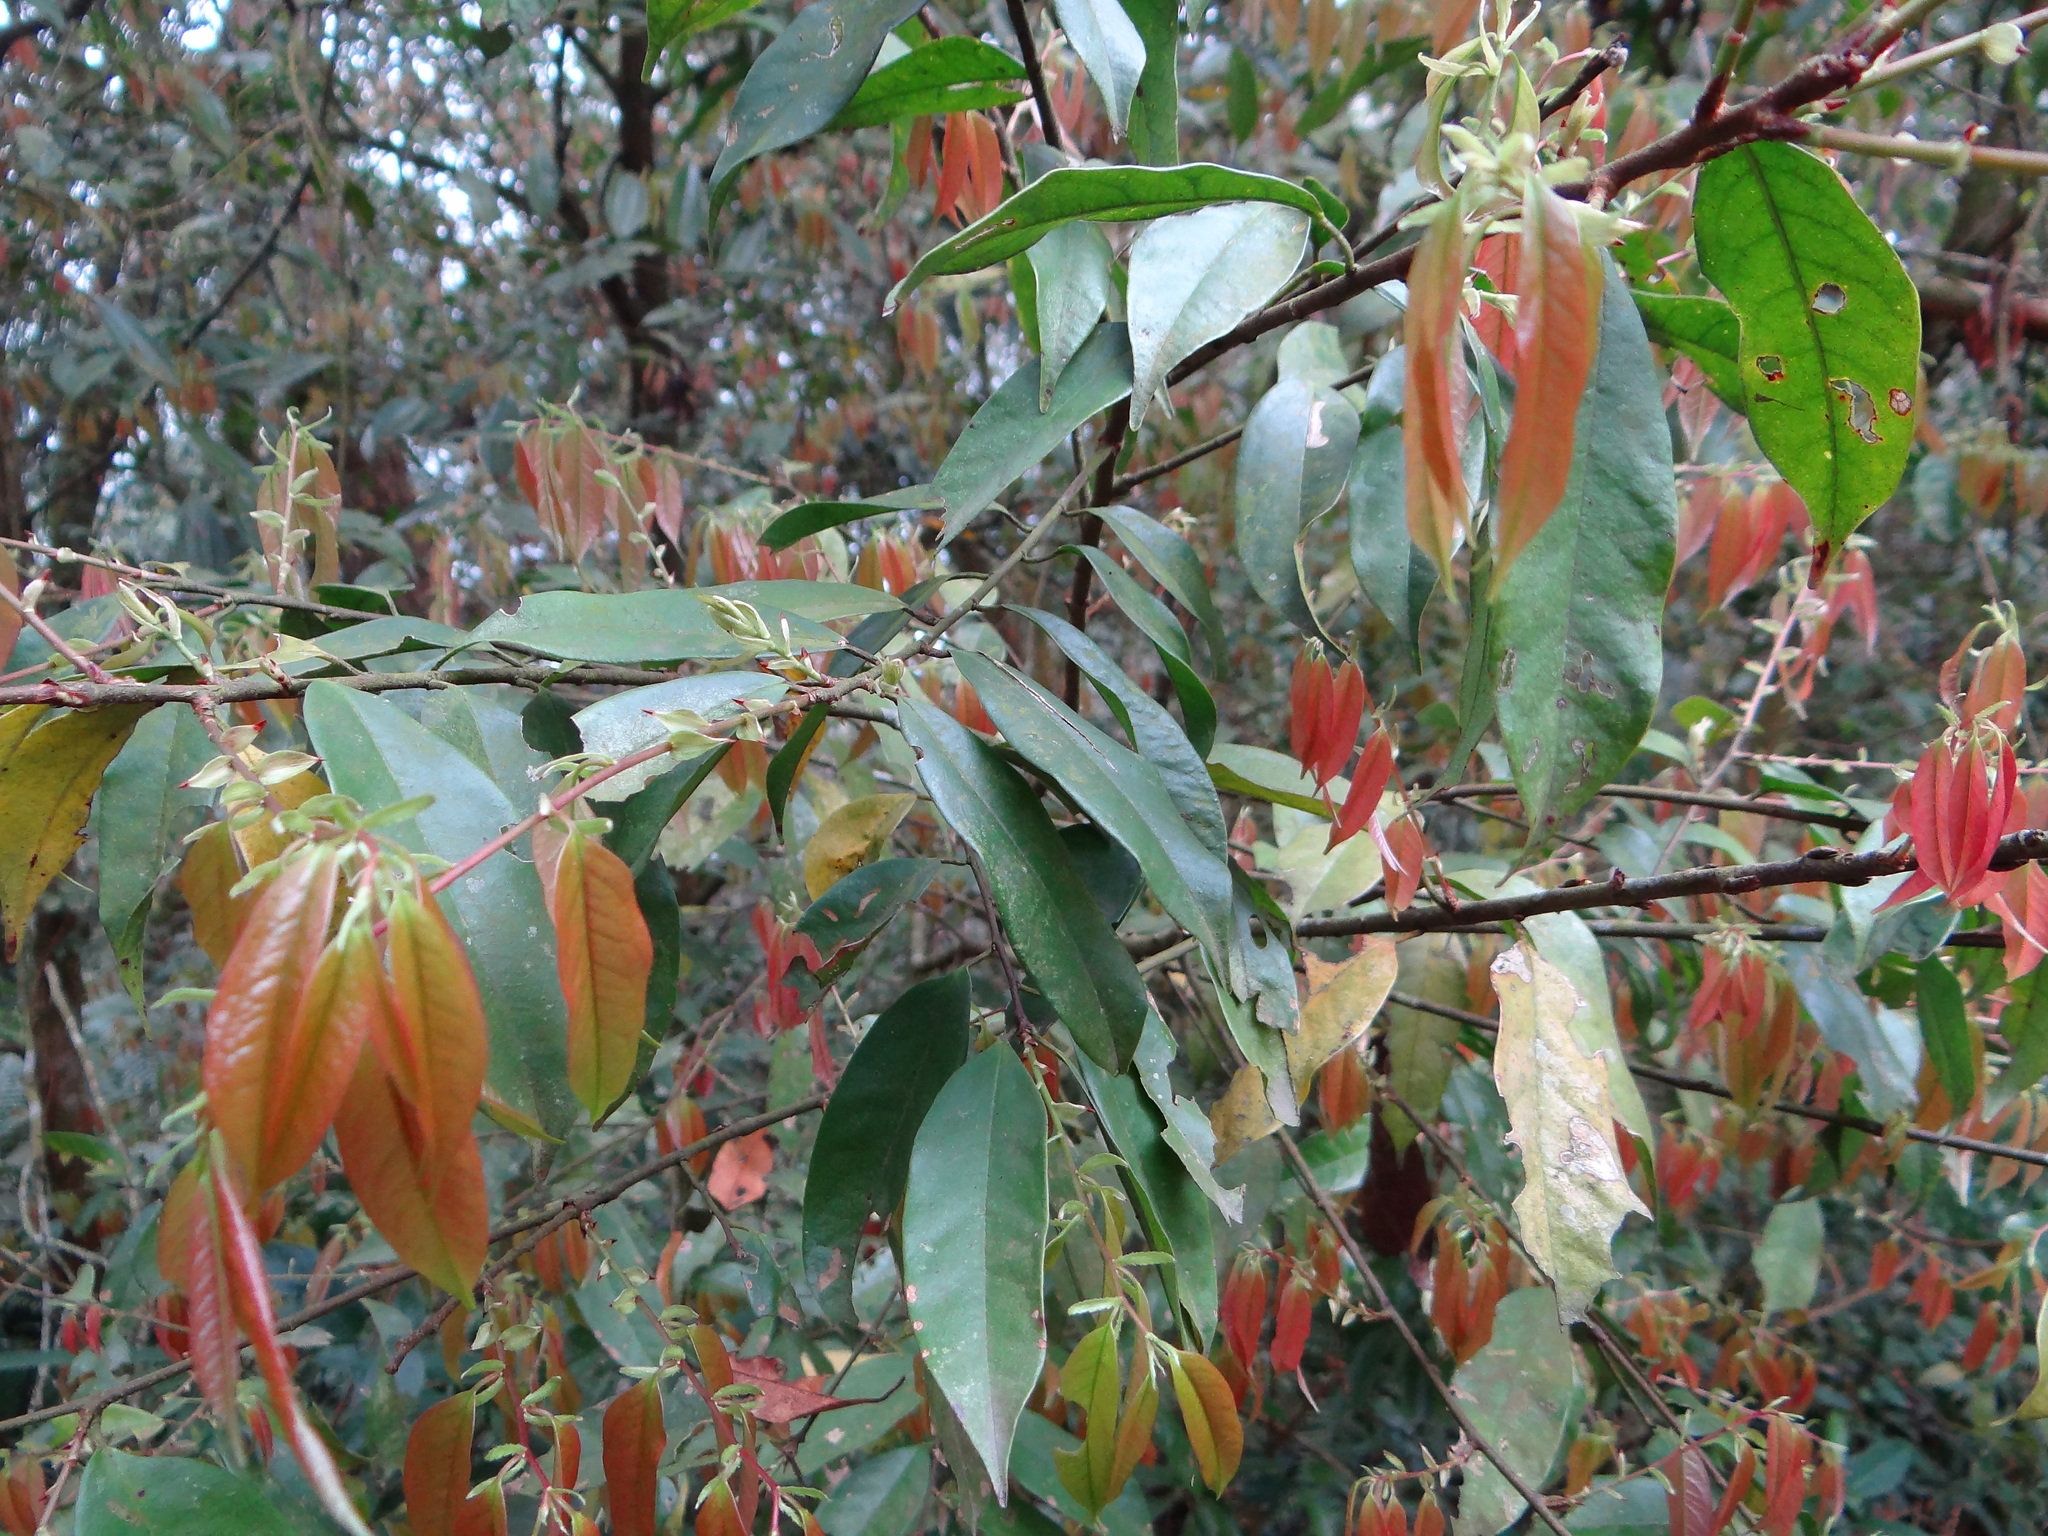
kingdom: Plantae
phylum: Tracheophyta
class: Magnoliopsida
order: Rosales
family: Rosaceae
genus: Prunus
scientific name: Prunus phaeosticta
